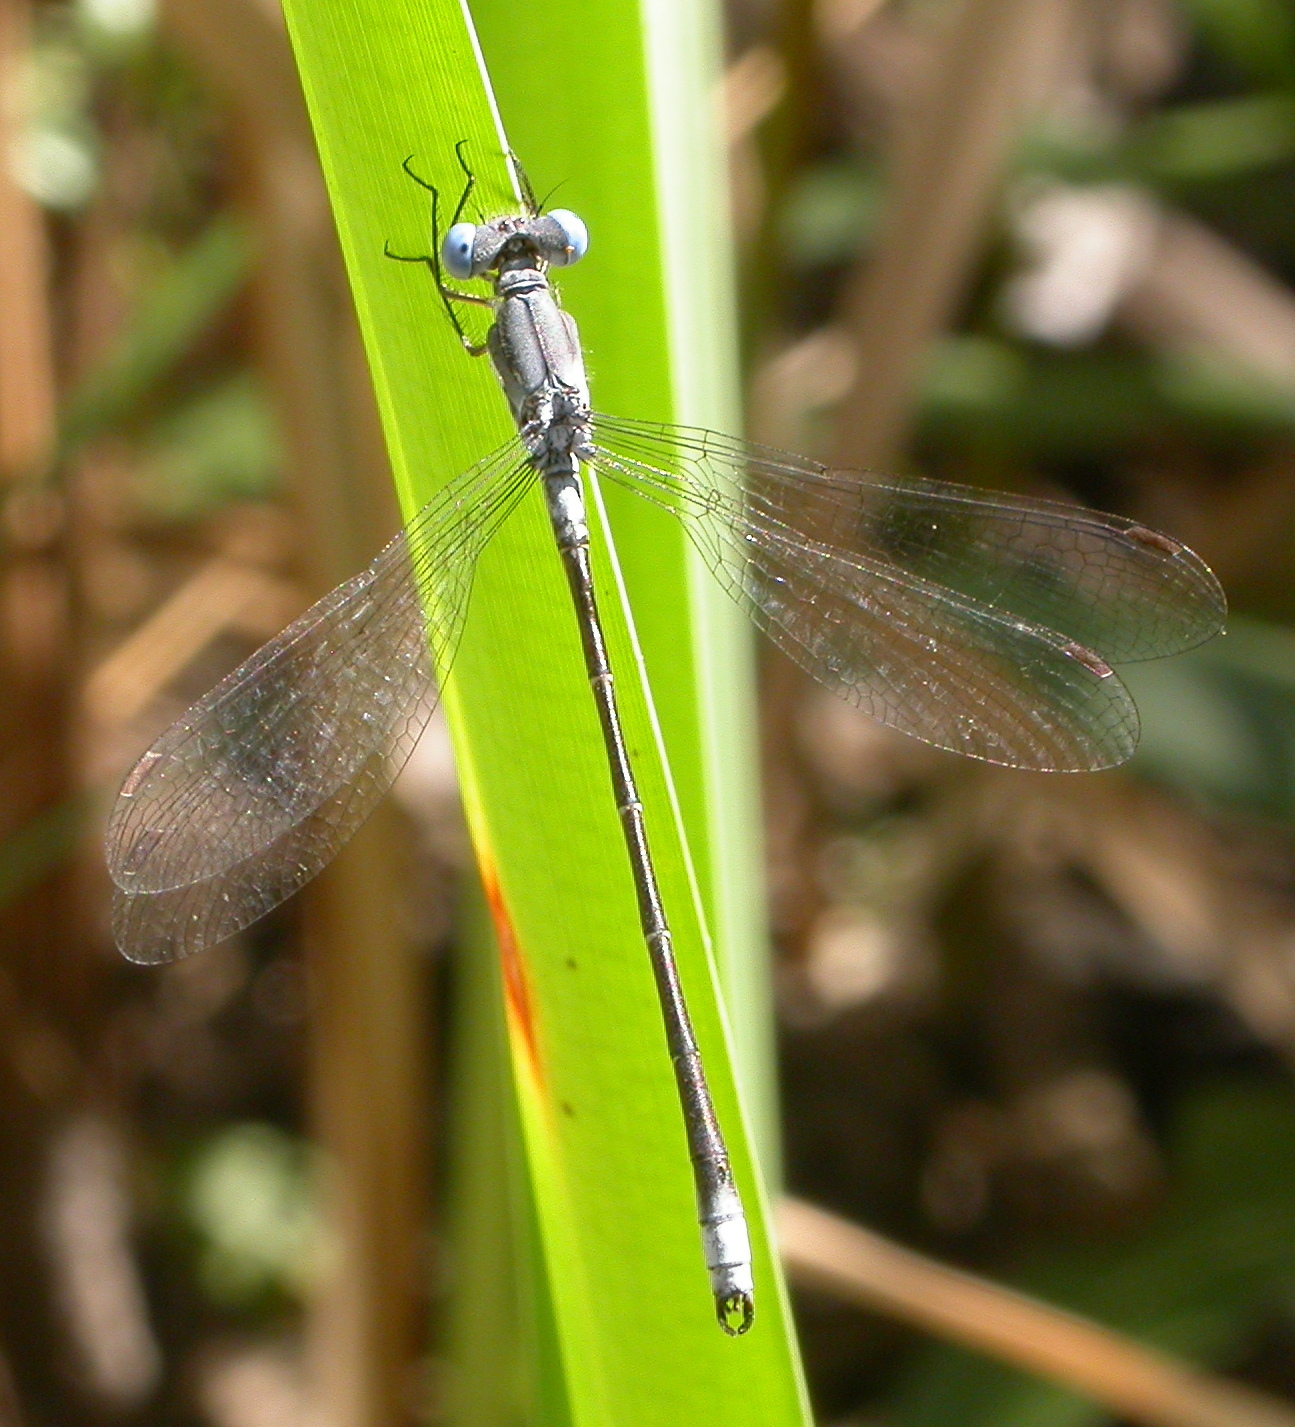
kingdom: Animalia
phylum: Arthropoda
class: Insecta
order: Odonata
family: Lestidae
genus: Lestes
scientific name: Lestes congener
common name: Spotted spreadwing
